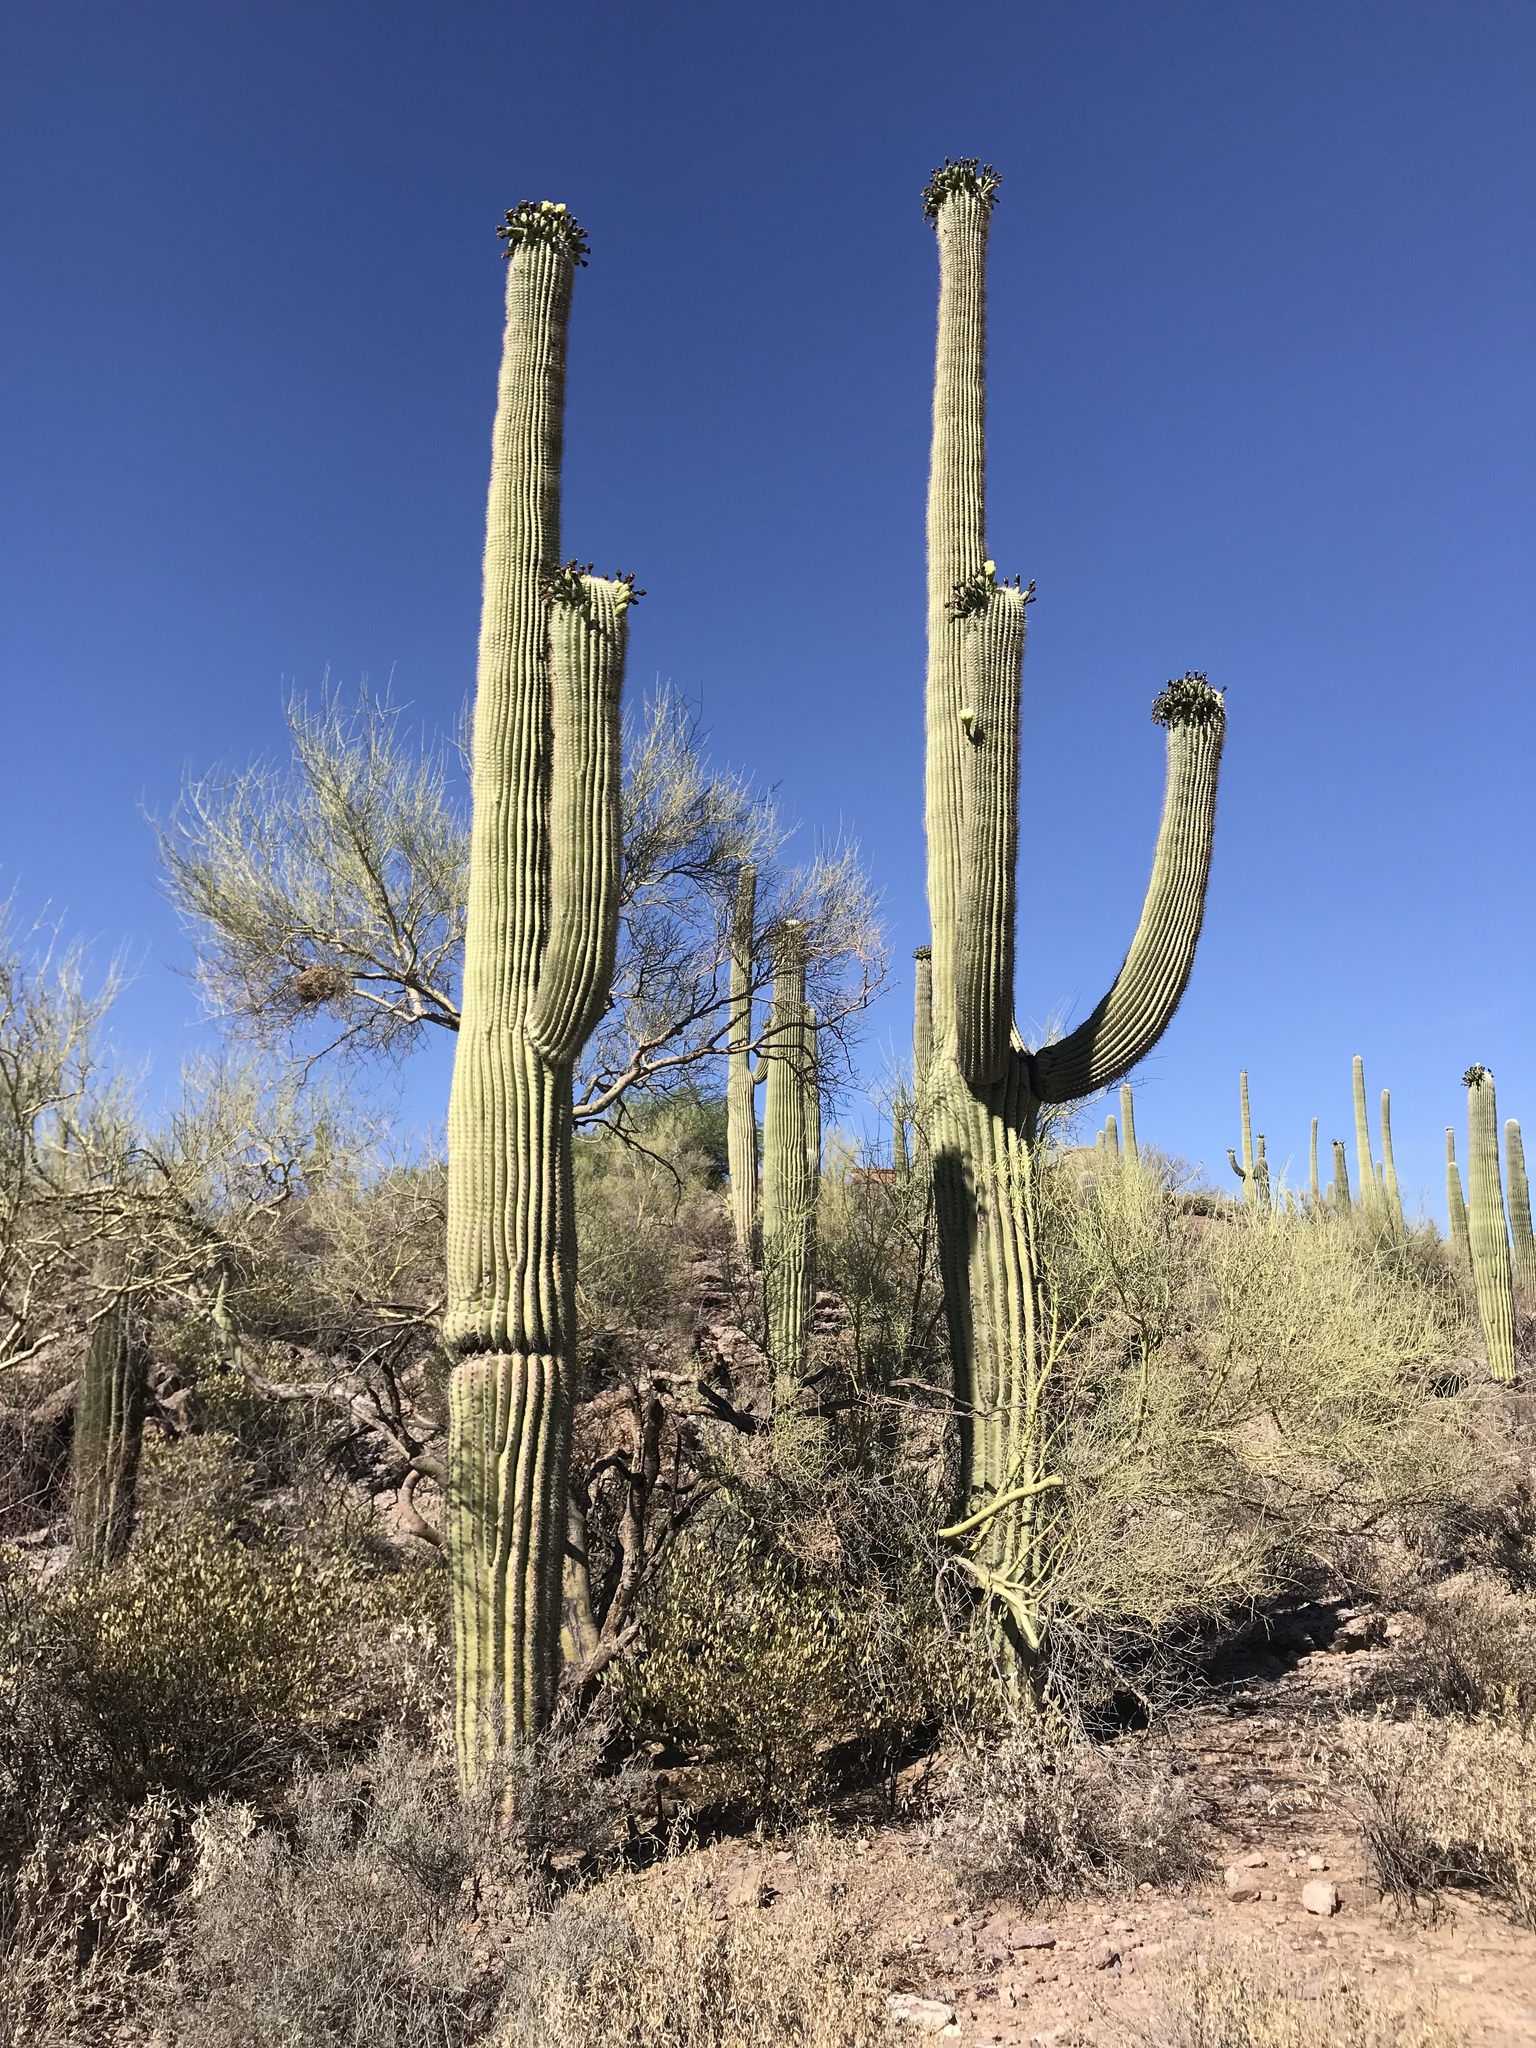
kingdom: Plantae
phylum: Tracheophyta
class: Magnoliopsida
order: Caryophyllales
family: Cactaceae
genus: Carnegiea
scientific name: Carnegiea gigantea
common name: Saguaro
